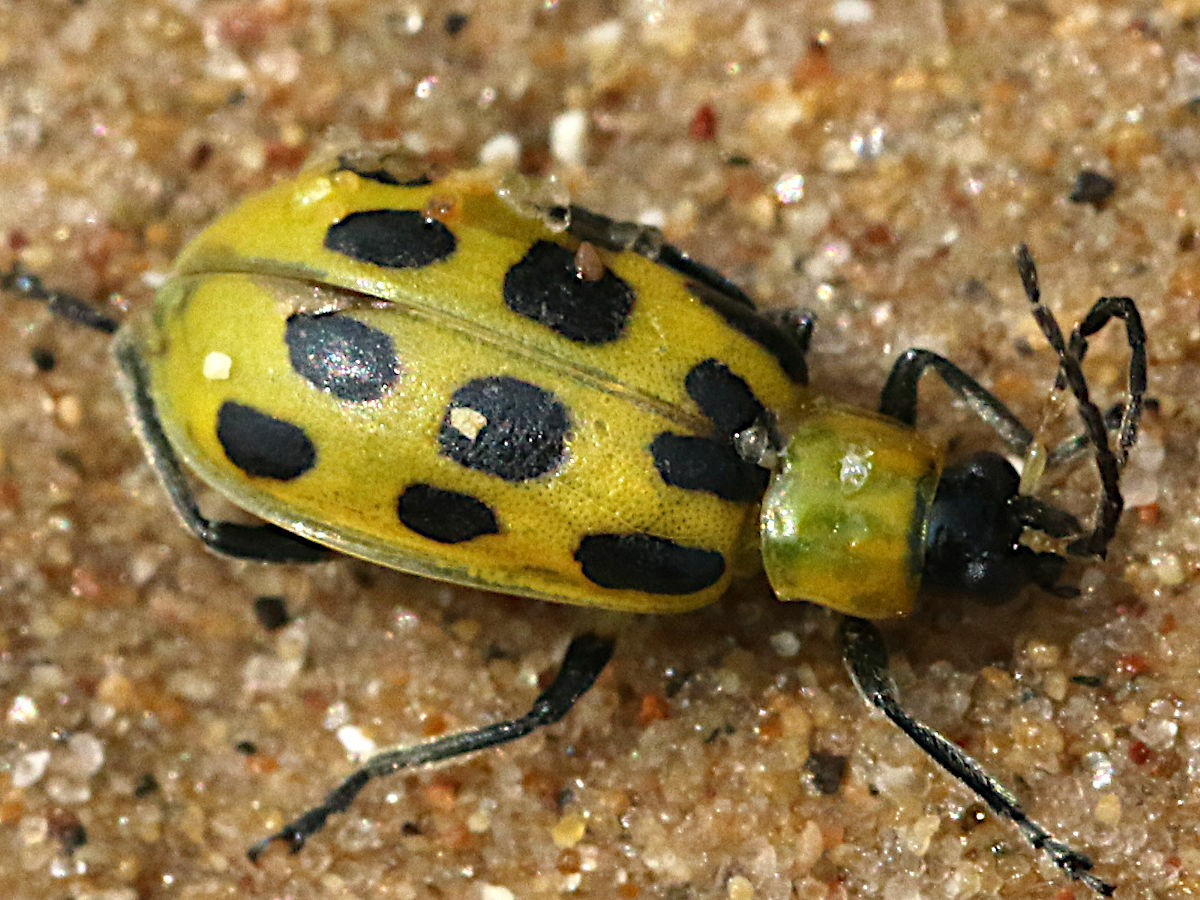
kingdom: Animalia
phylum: Arthropoda
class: Insecta
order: Coleoptera
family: Chrysomelidae
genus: Diabrotica
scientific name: Diabrotica undecimpunctata
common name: Spotted cucumber beetle
